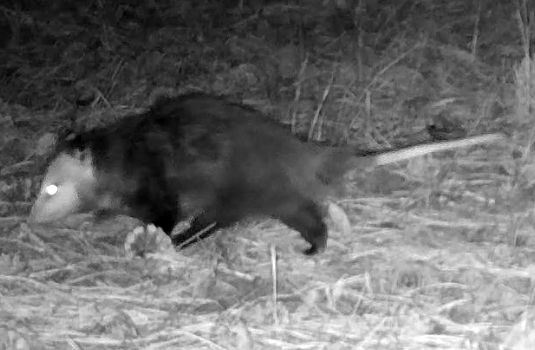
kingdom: Animalia
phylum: Chordata
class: Mammalia
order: Didelphimorphia
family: Didelphidae
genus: Didelphis
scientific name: Didelphis virginiana
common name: Virginia opossum
